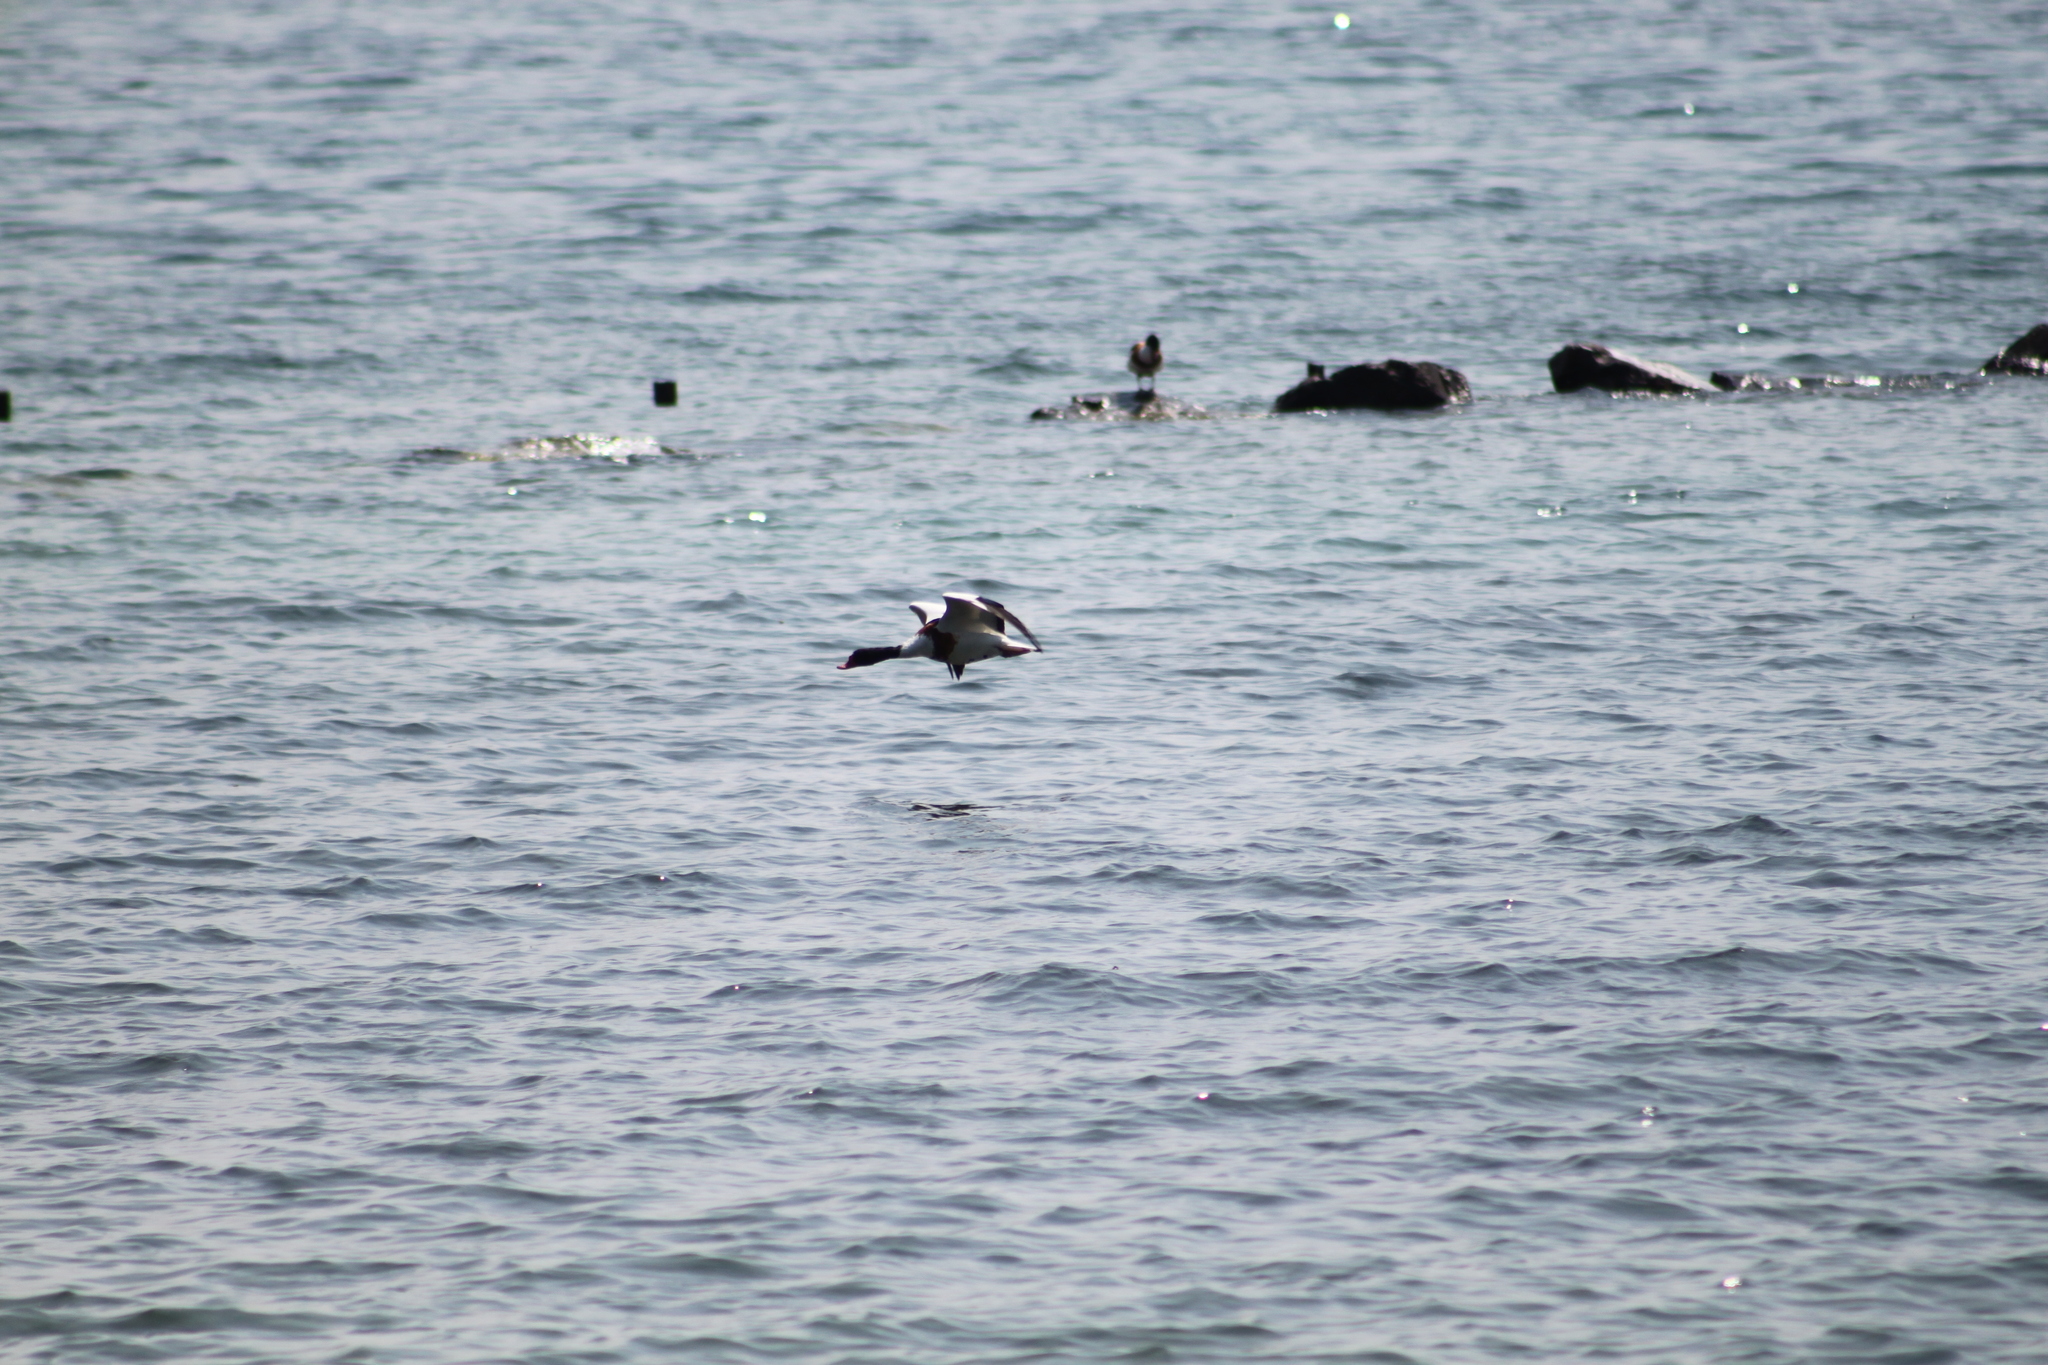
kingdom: Animalia
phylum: Chordata
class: Aves
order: Anseriformes
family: Anatidae
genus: Tadorna
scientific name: Tadorna tadorna
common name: Common shelduck
